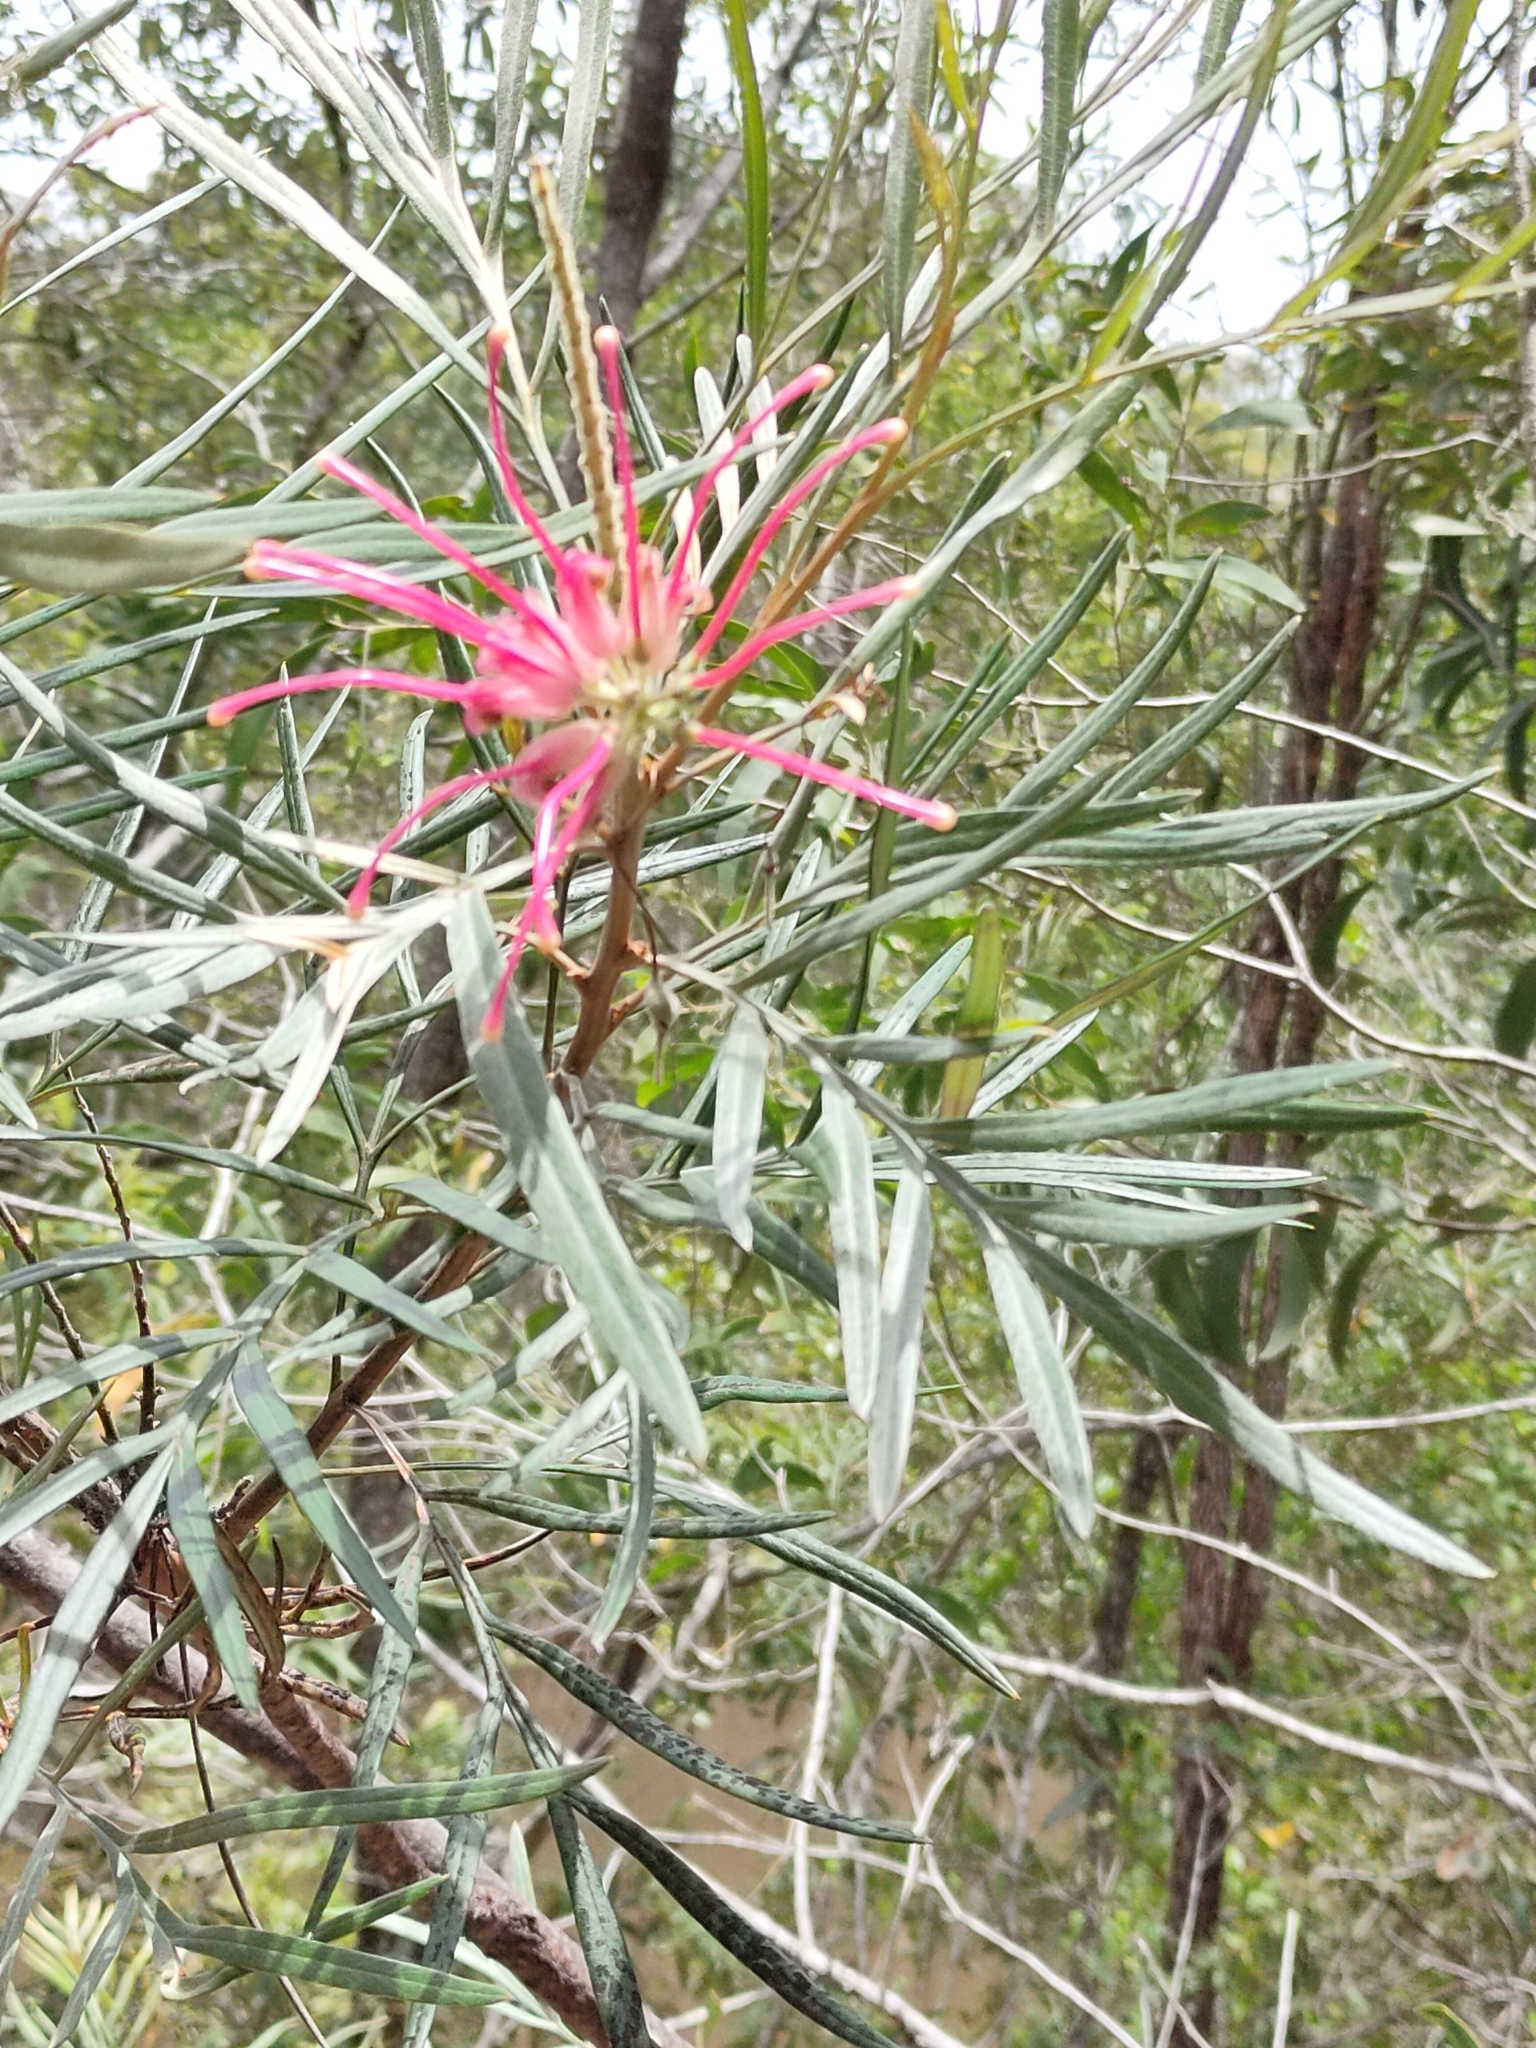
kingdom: Plantae
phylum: Tracheophyta
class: Magnoliopsida
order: Proteales
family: Proteaceae
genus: Grevillea
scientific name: Grevillea banksii
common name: Kahili flower
